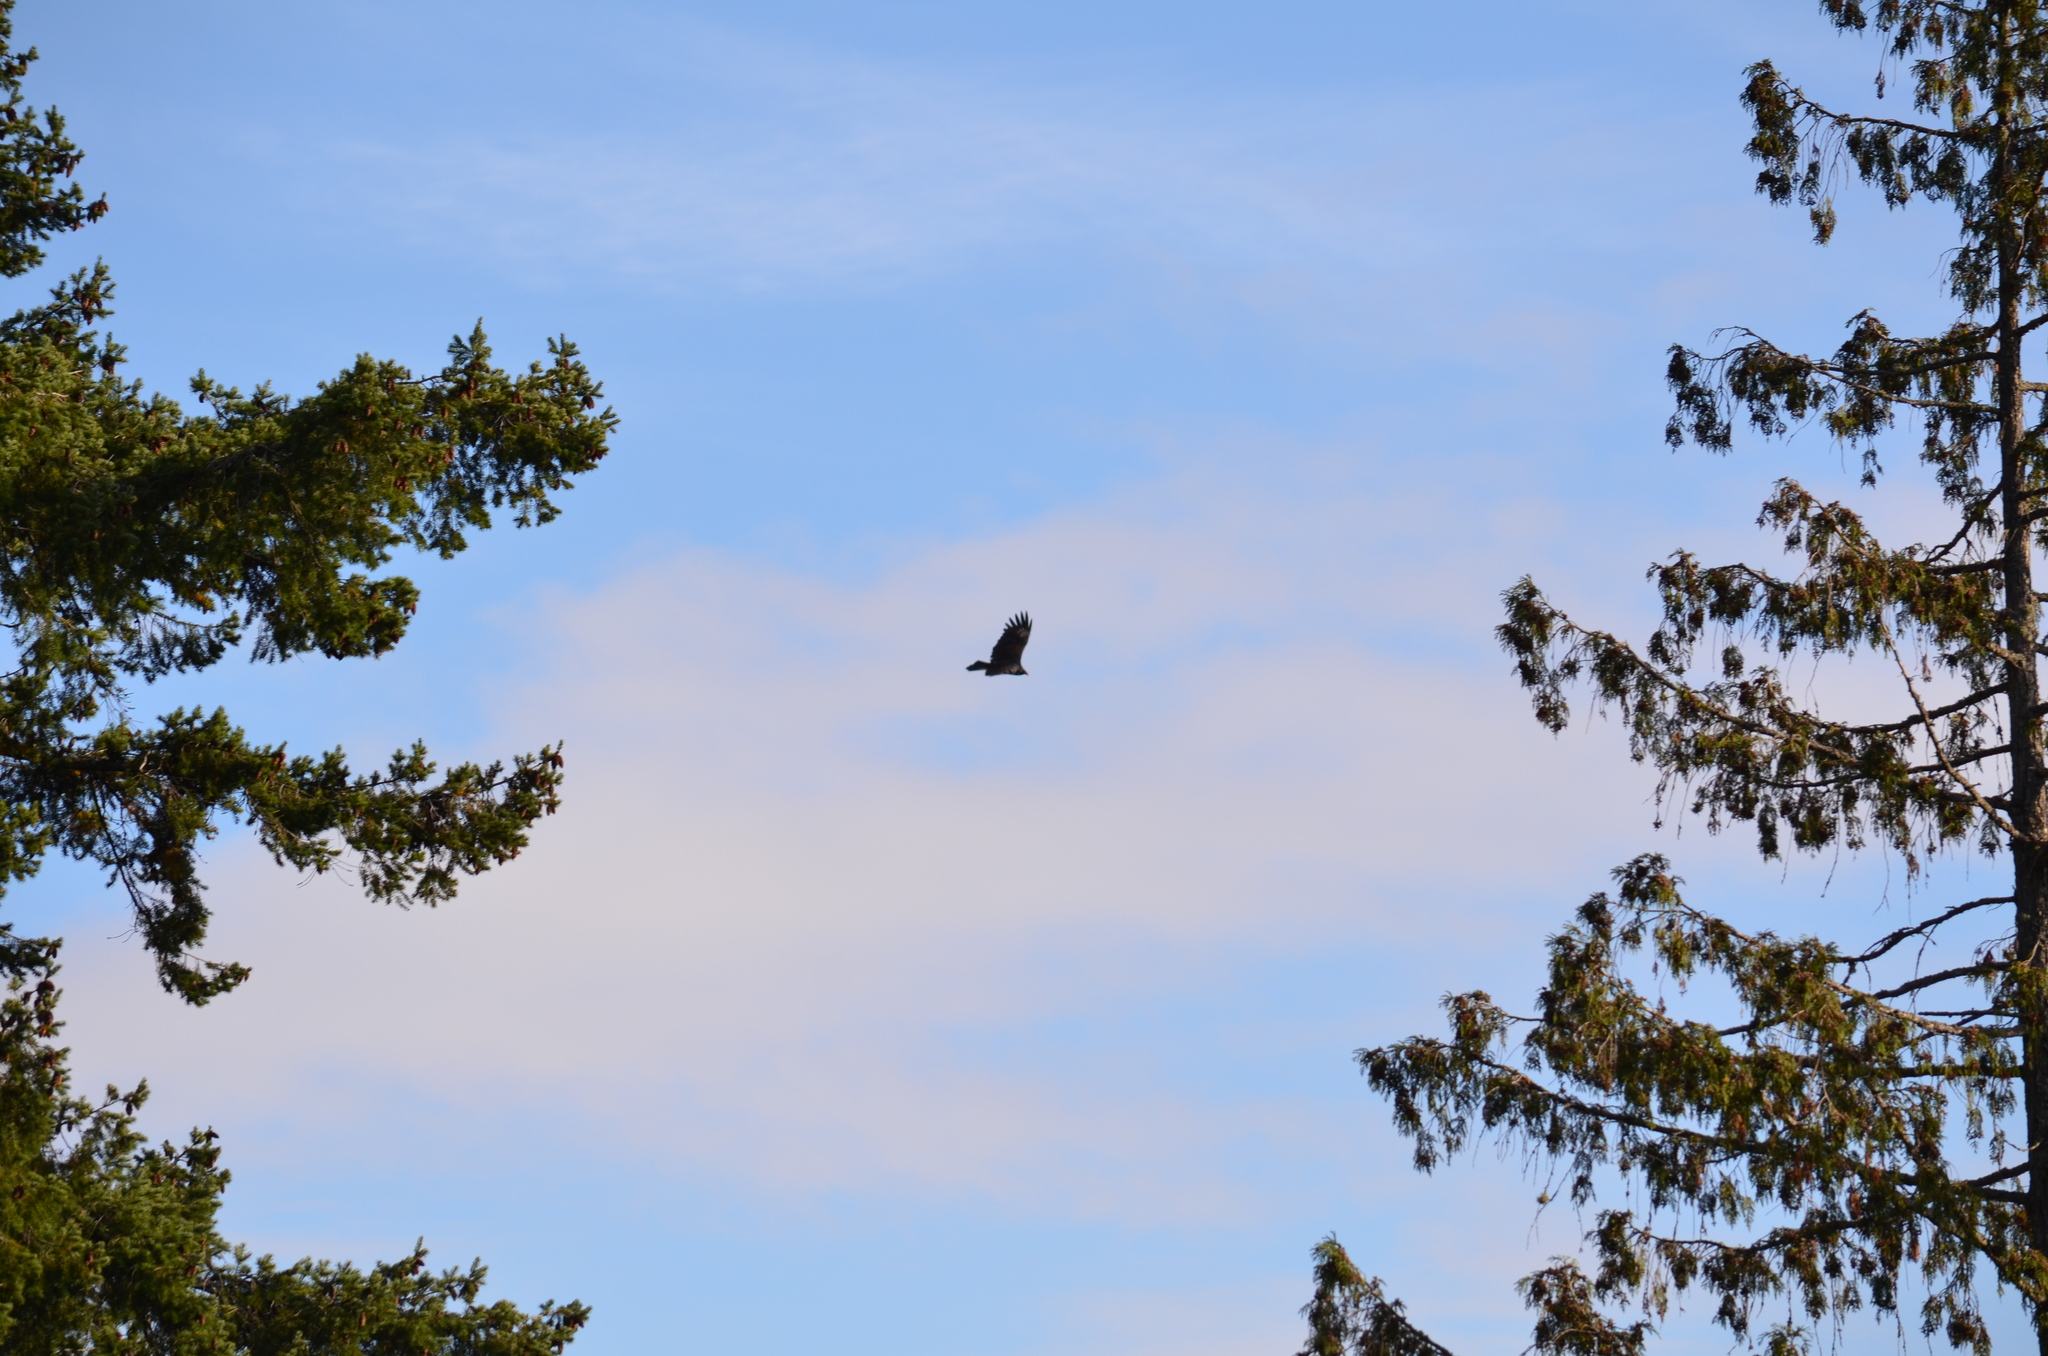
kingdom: Animalia
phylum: Chordata
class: Aves
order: Accipitriformes
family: Cathartidae
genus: Cathartes
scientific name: Cathartes aura
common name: Turkey vulture
